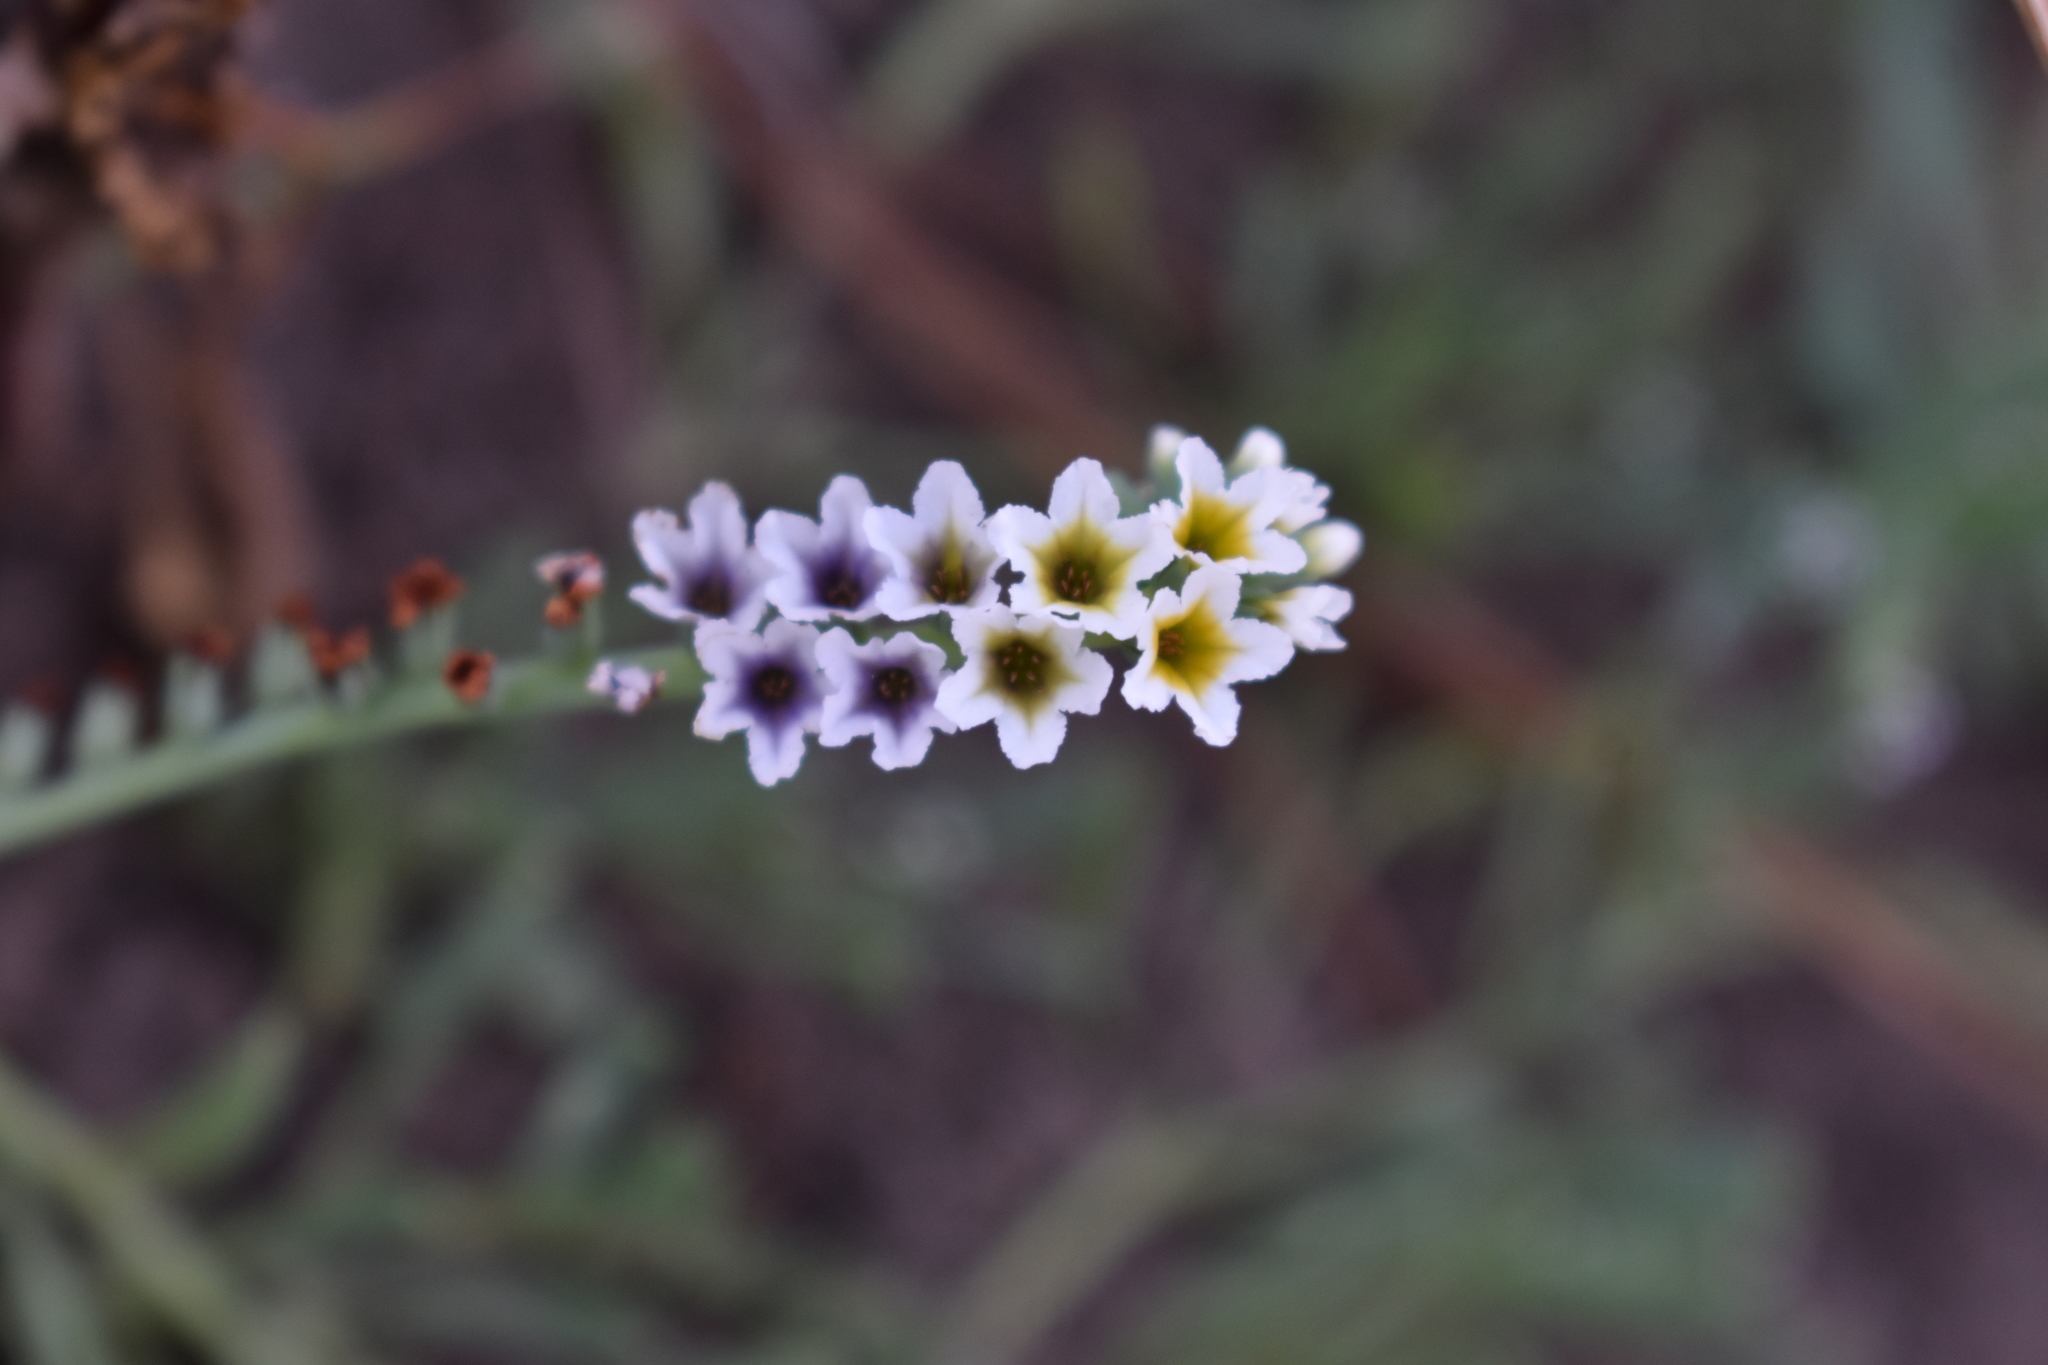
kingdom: Plantae
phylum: Tracheophyta
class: Magnoliopsida
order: Boraginales
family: Heliotropiaceae
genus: Heliotropium
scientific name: Heliotropium curassavicum
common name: Seaside heliotrope
